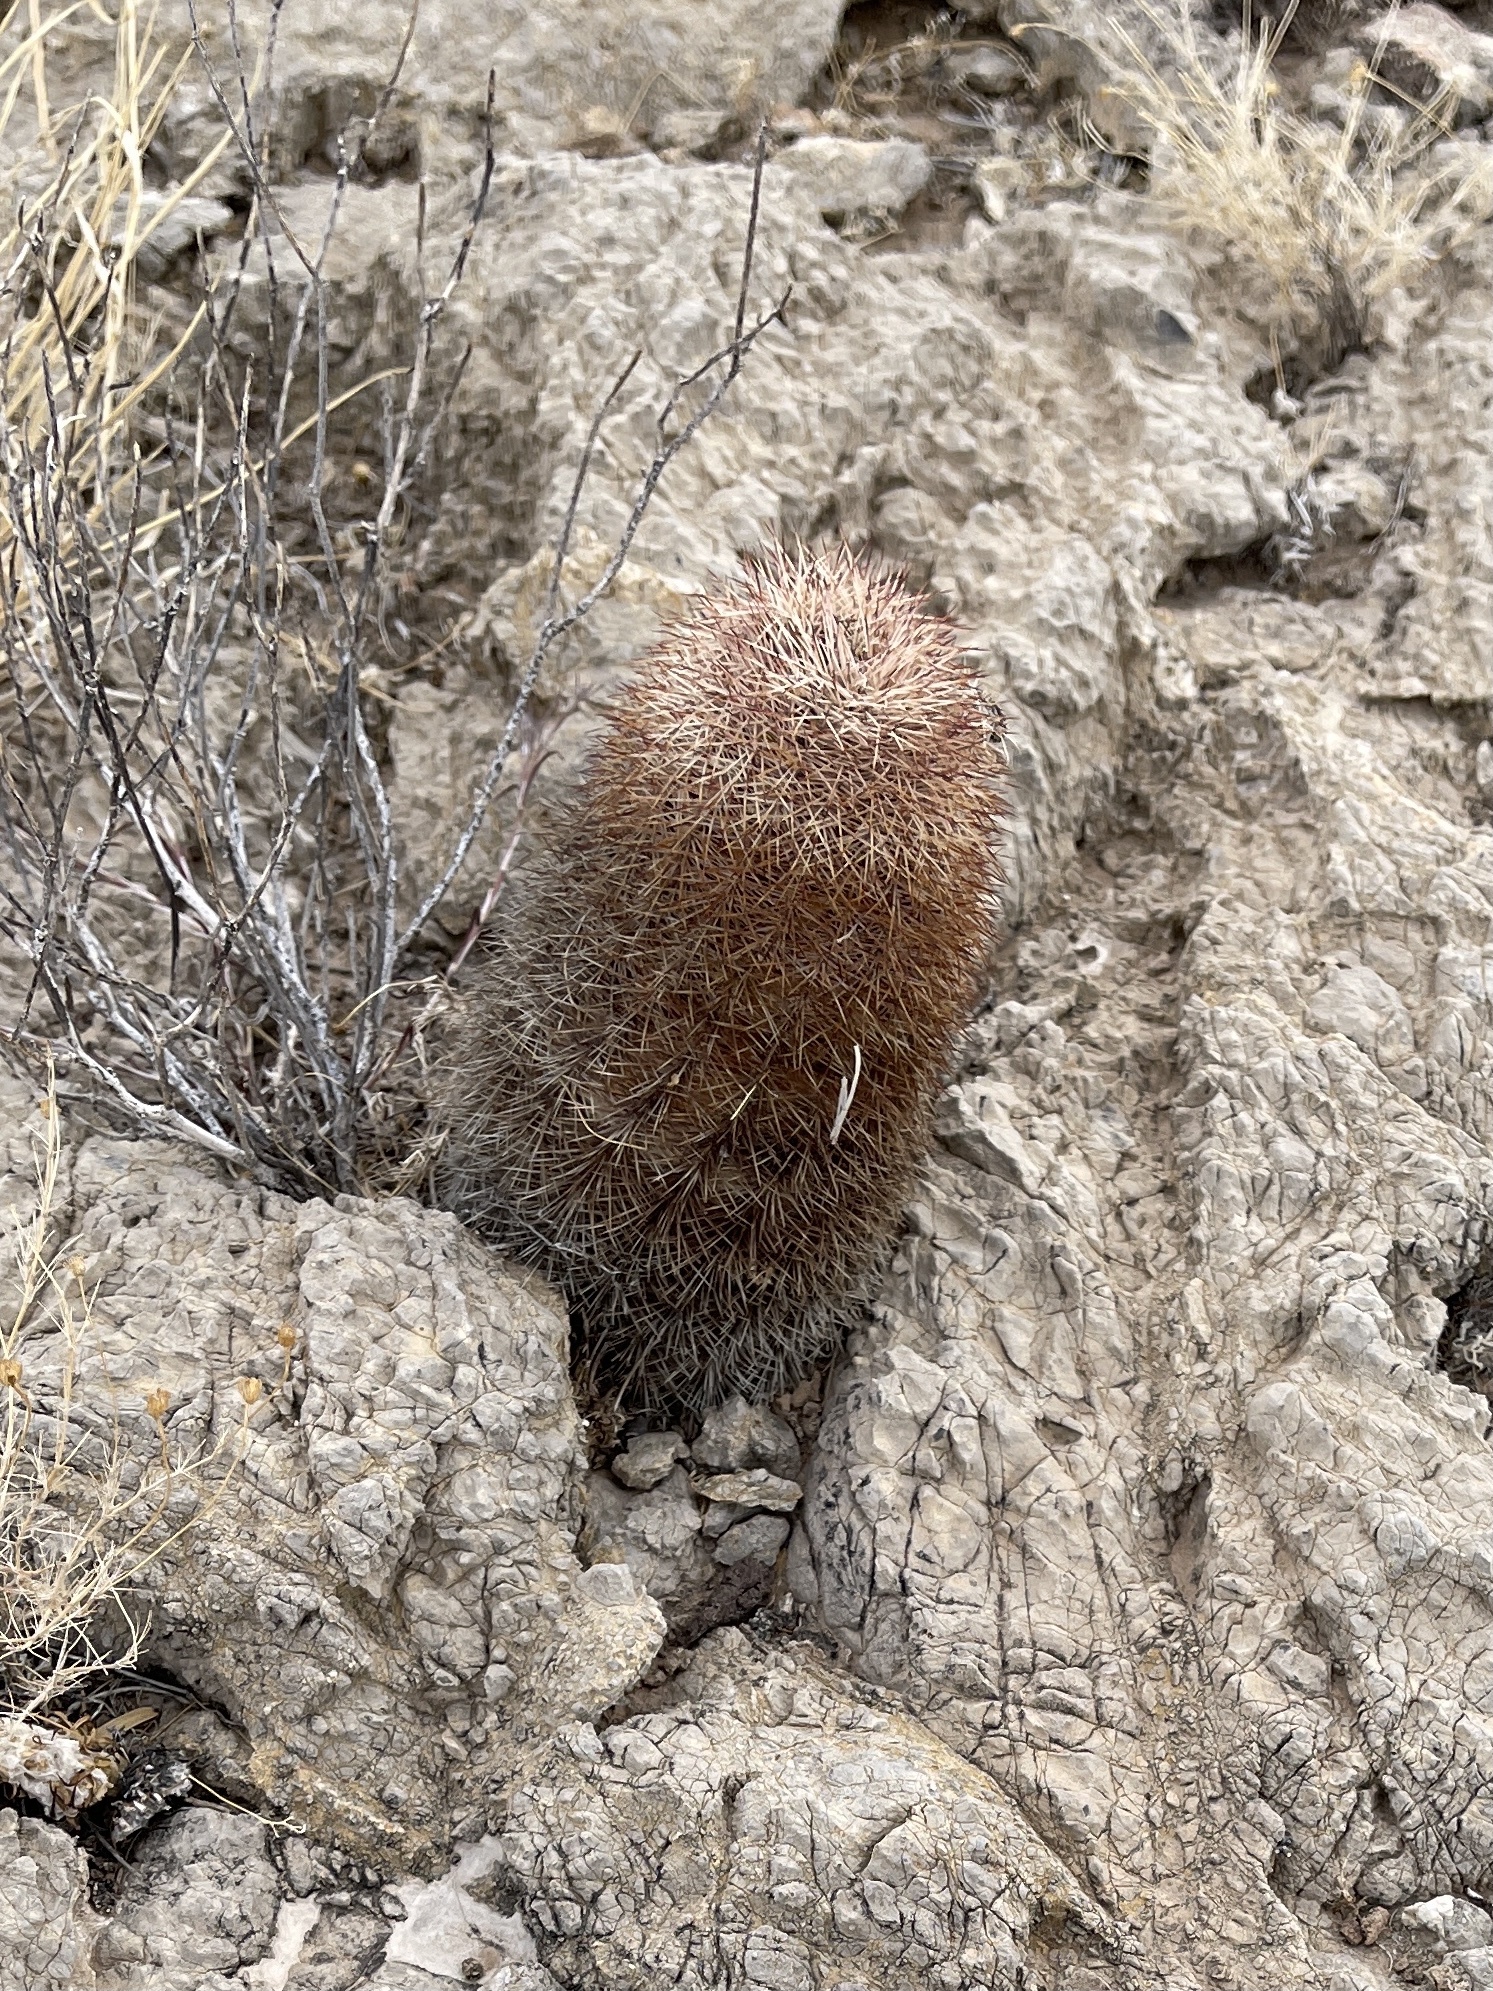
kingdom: Plantae
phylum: Tracheophyta
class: Magnoliopsida
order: Caryophyllales
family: Cactaceae
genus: Echinocereus
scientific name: Echinocereus dasyacanthus
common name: Spiny hedgehog cactus
